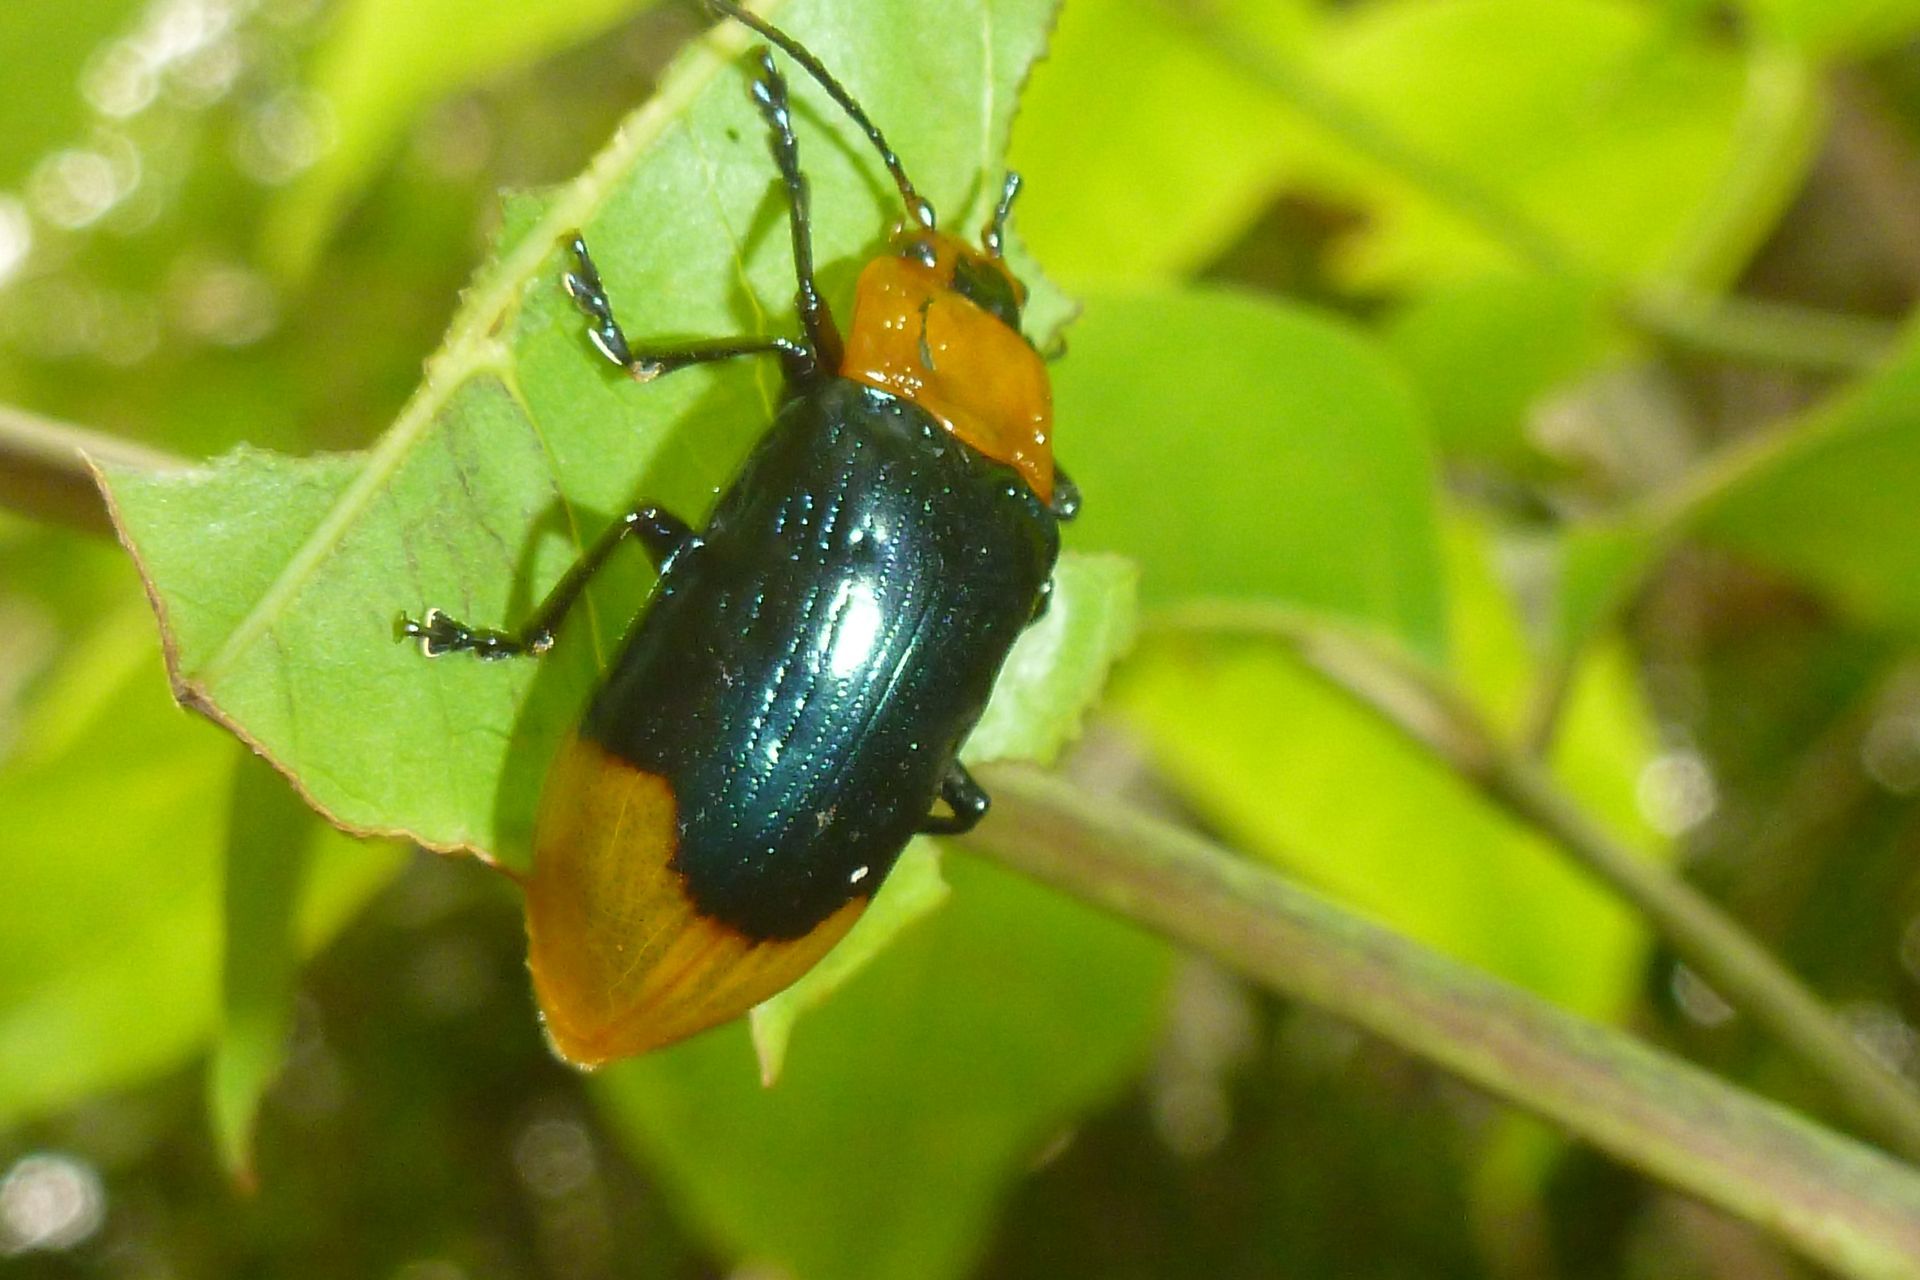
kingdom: Animalia
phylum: Arthropoda
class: Insecta
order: Coleoptera
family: Chrysomelidae
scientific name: Chrysomelidae
